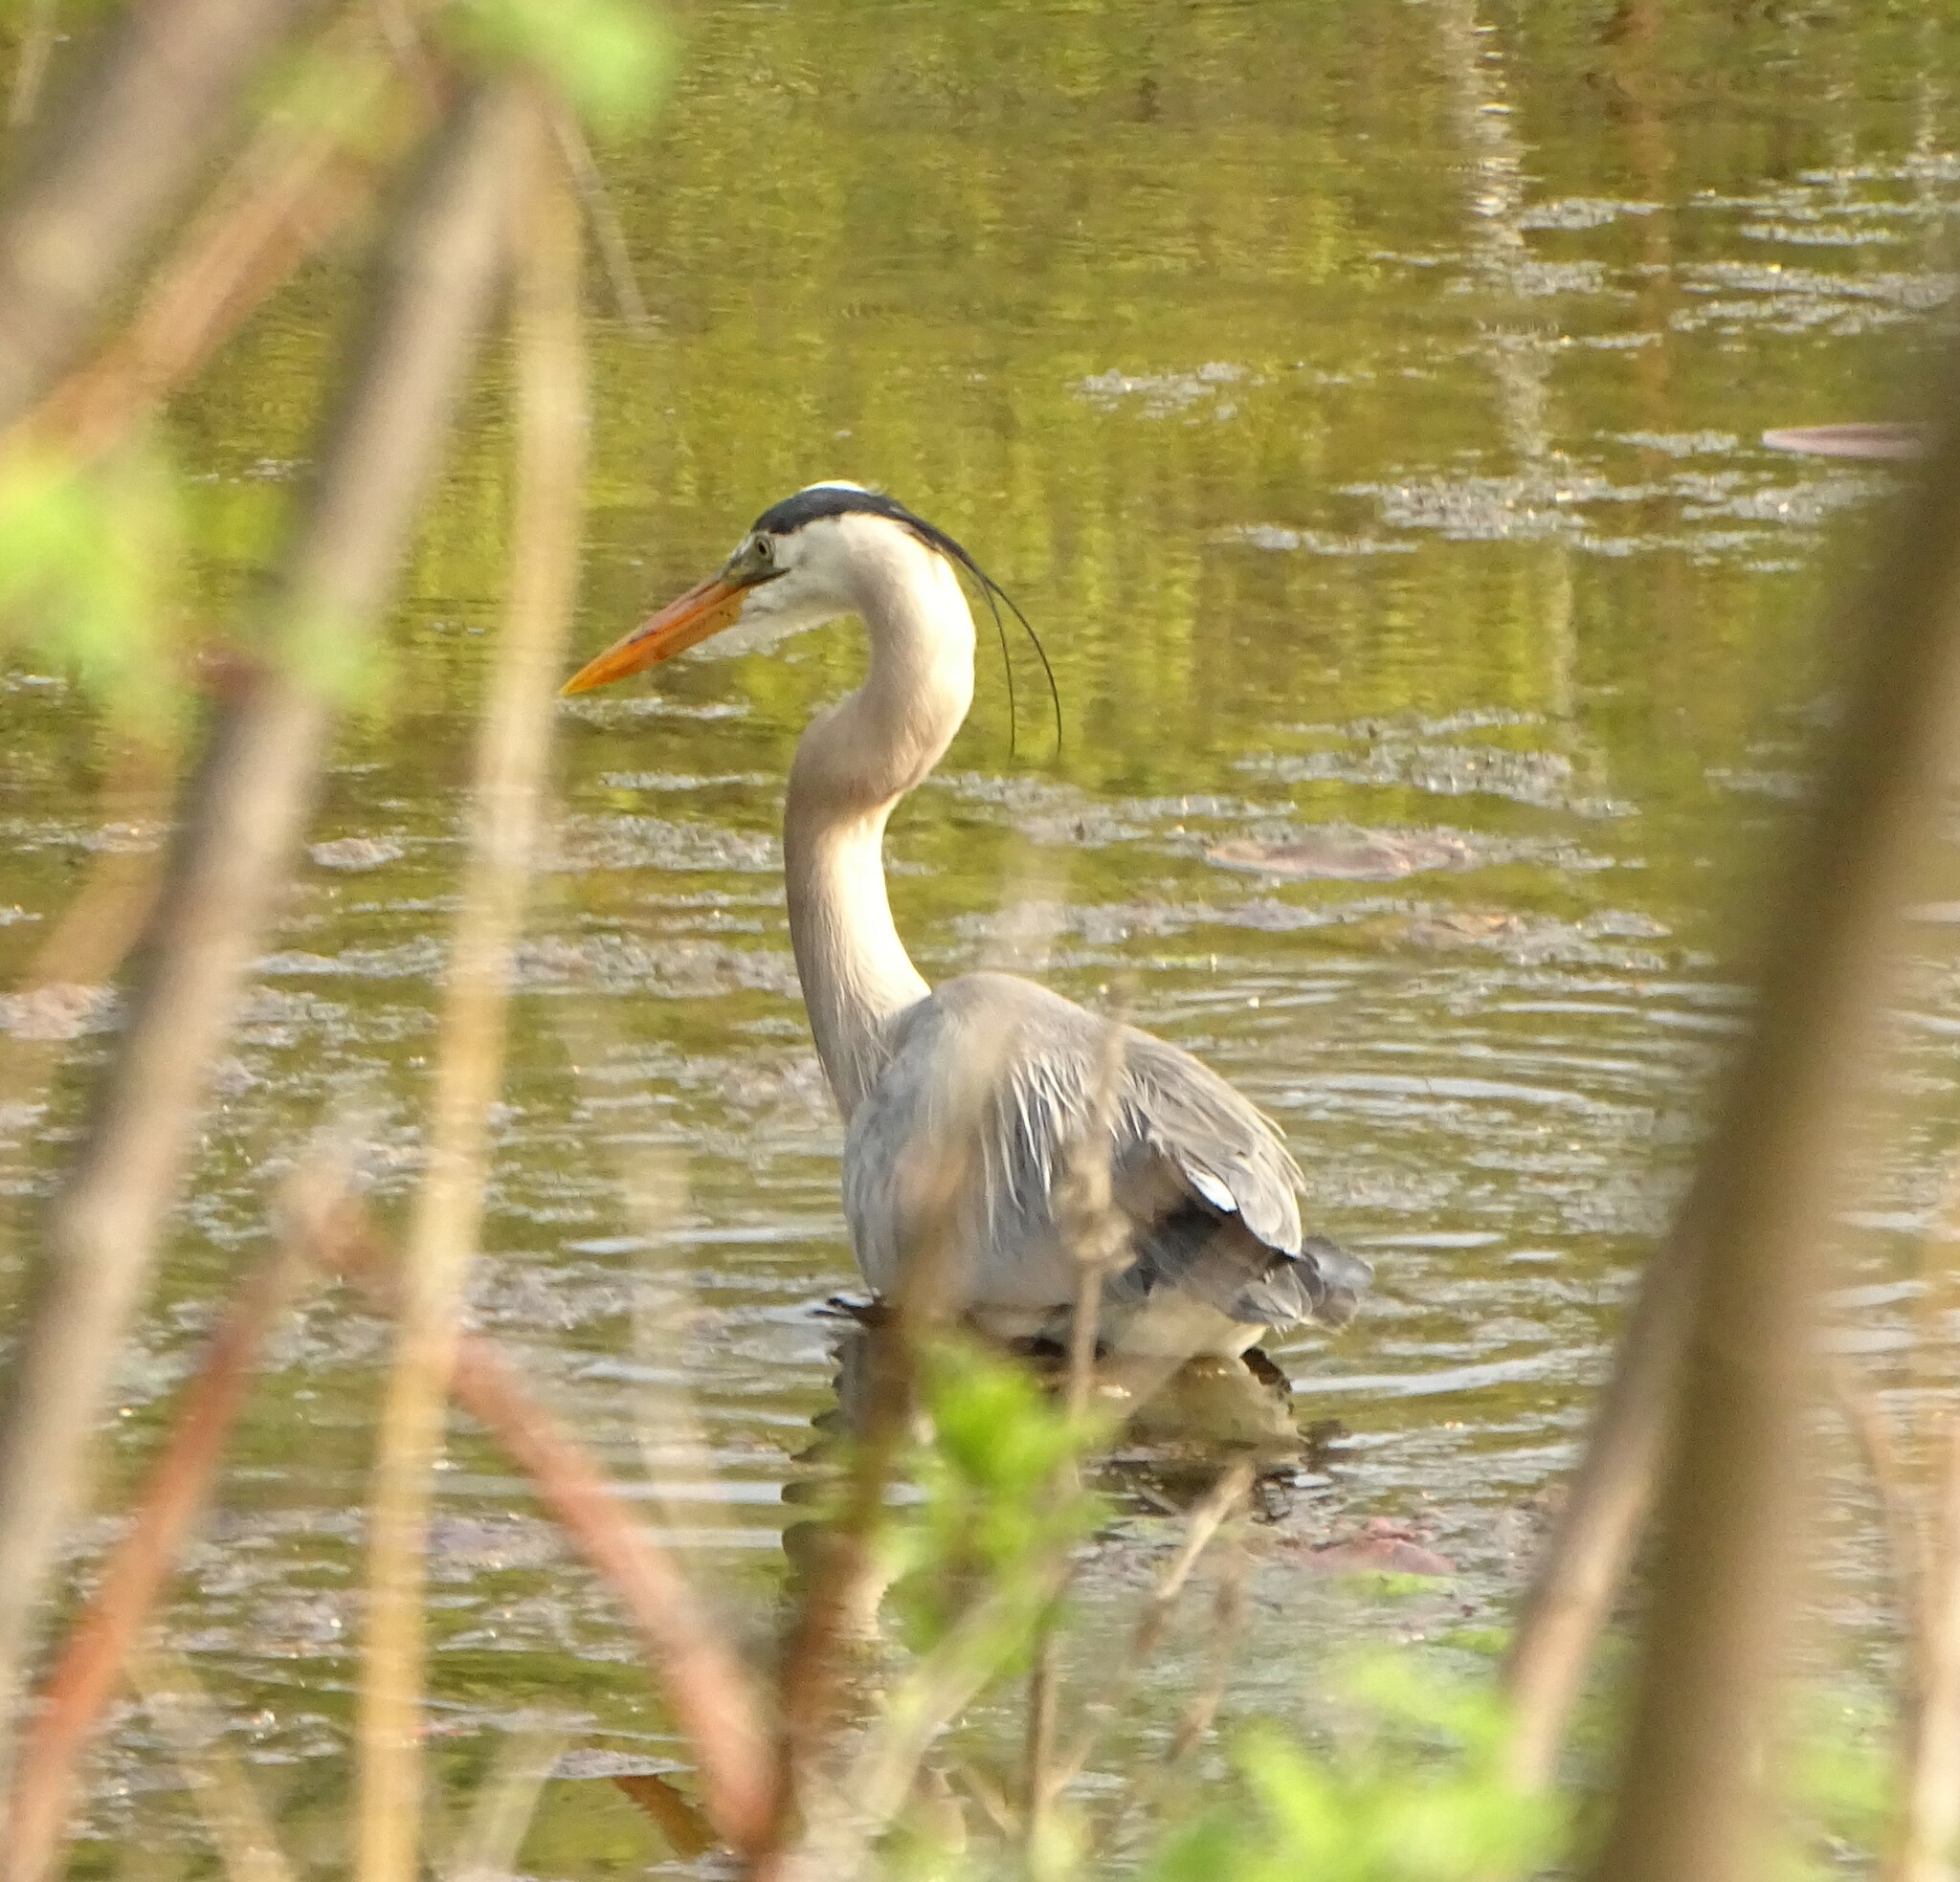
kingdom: Animalia
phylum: Chordata
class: Aves
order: Pelecaniformes
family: Ardeidae
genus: Ardea
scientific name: Ardea herodias
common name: Great blue heron
